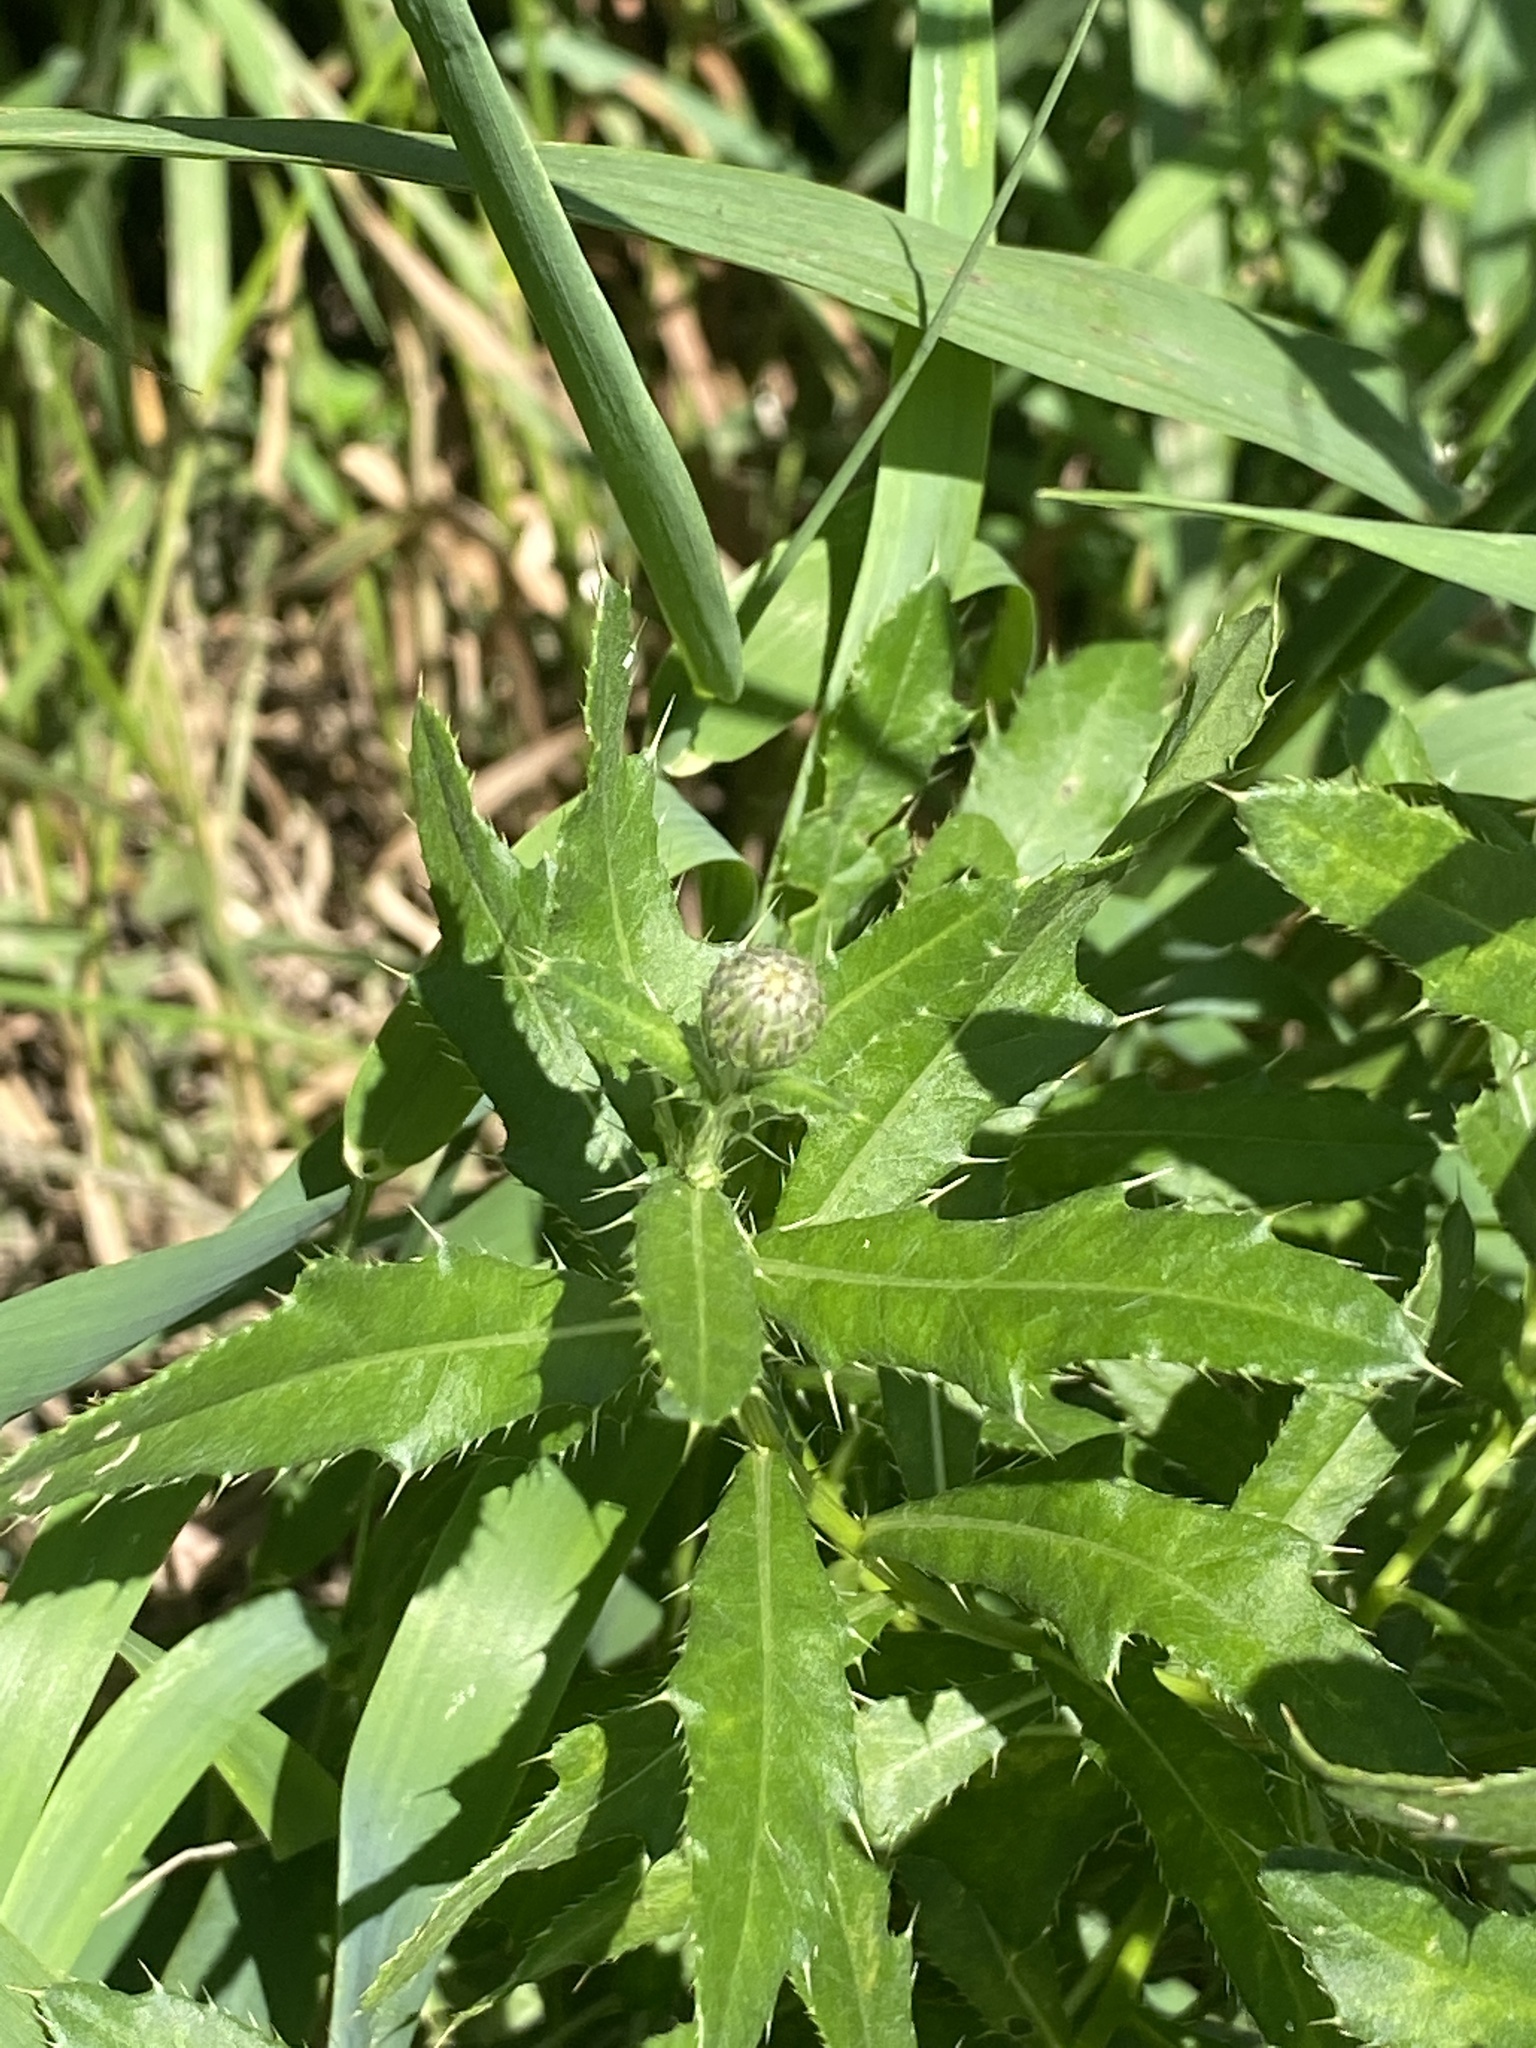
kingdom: Plantae
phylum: Tracheophyta
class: Magnoliopsida
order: Asterales
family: Asteraceae
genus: Cirsium
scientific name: Cirsium arvense
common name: Creeping thistle
